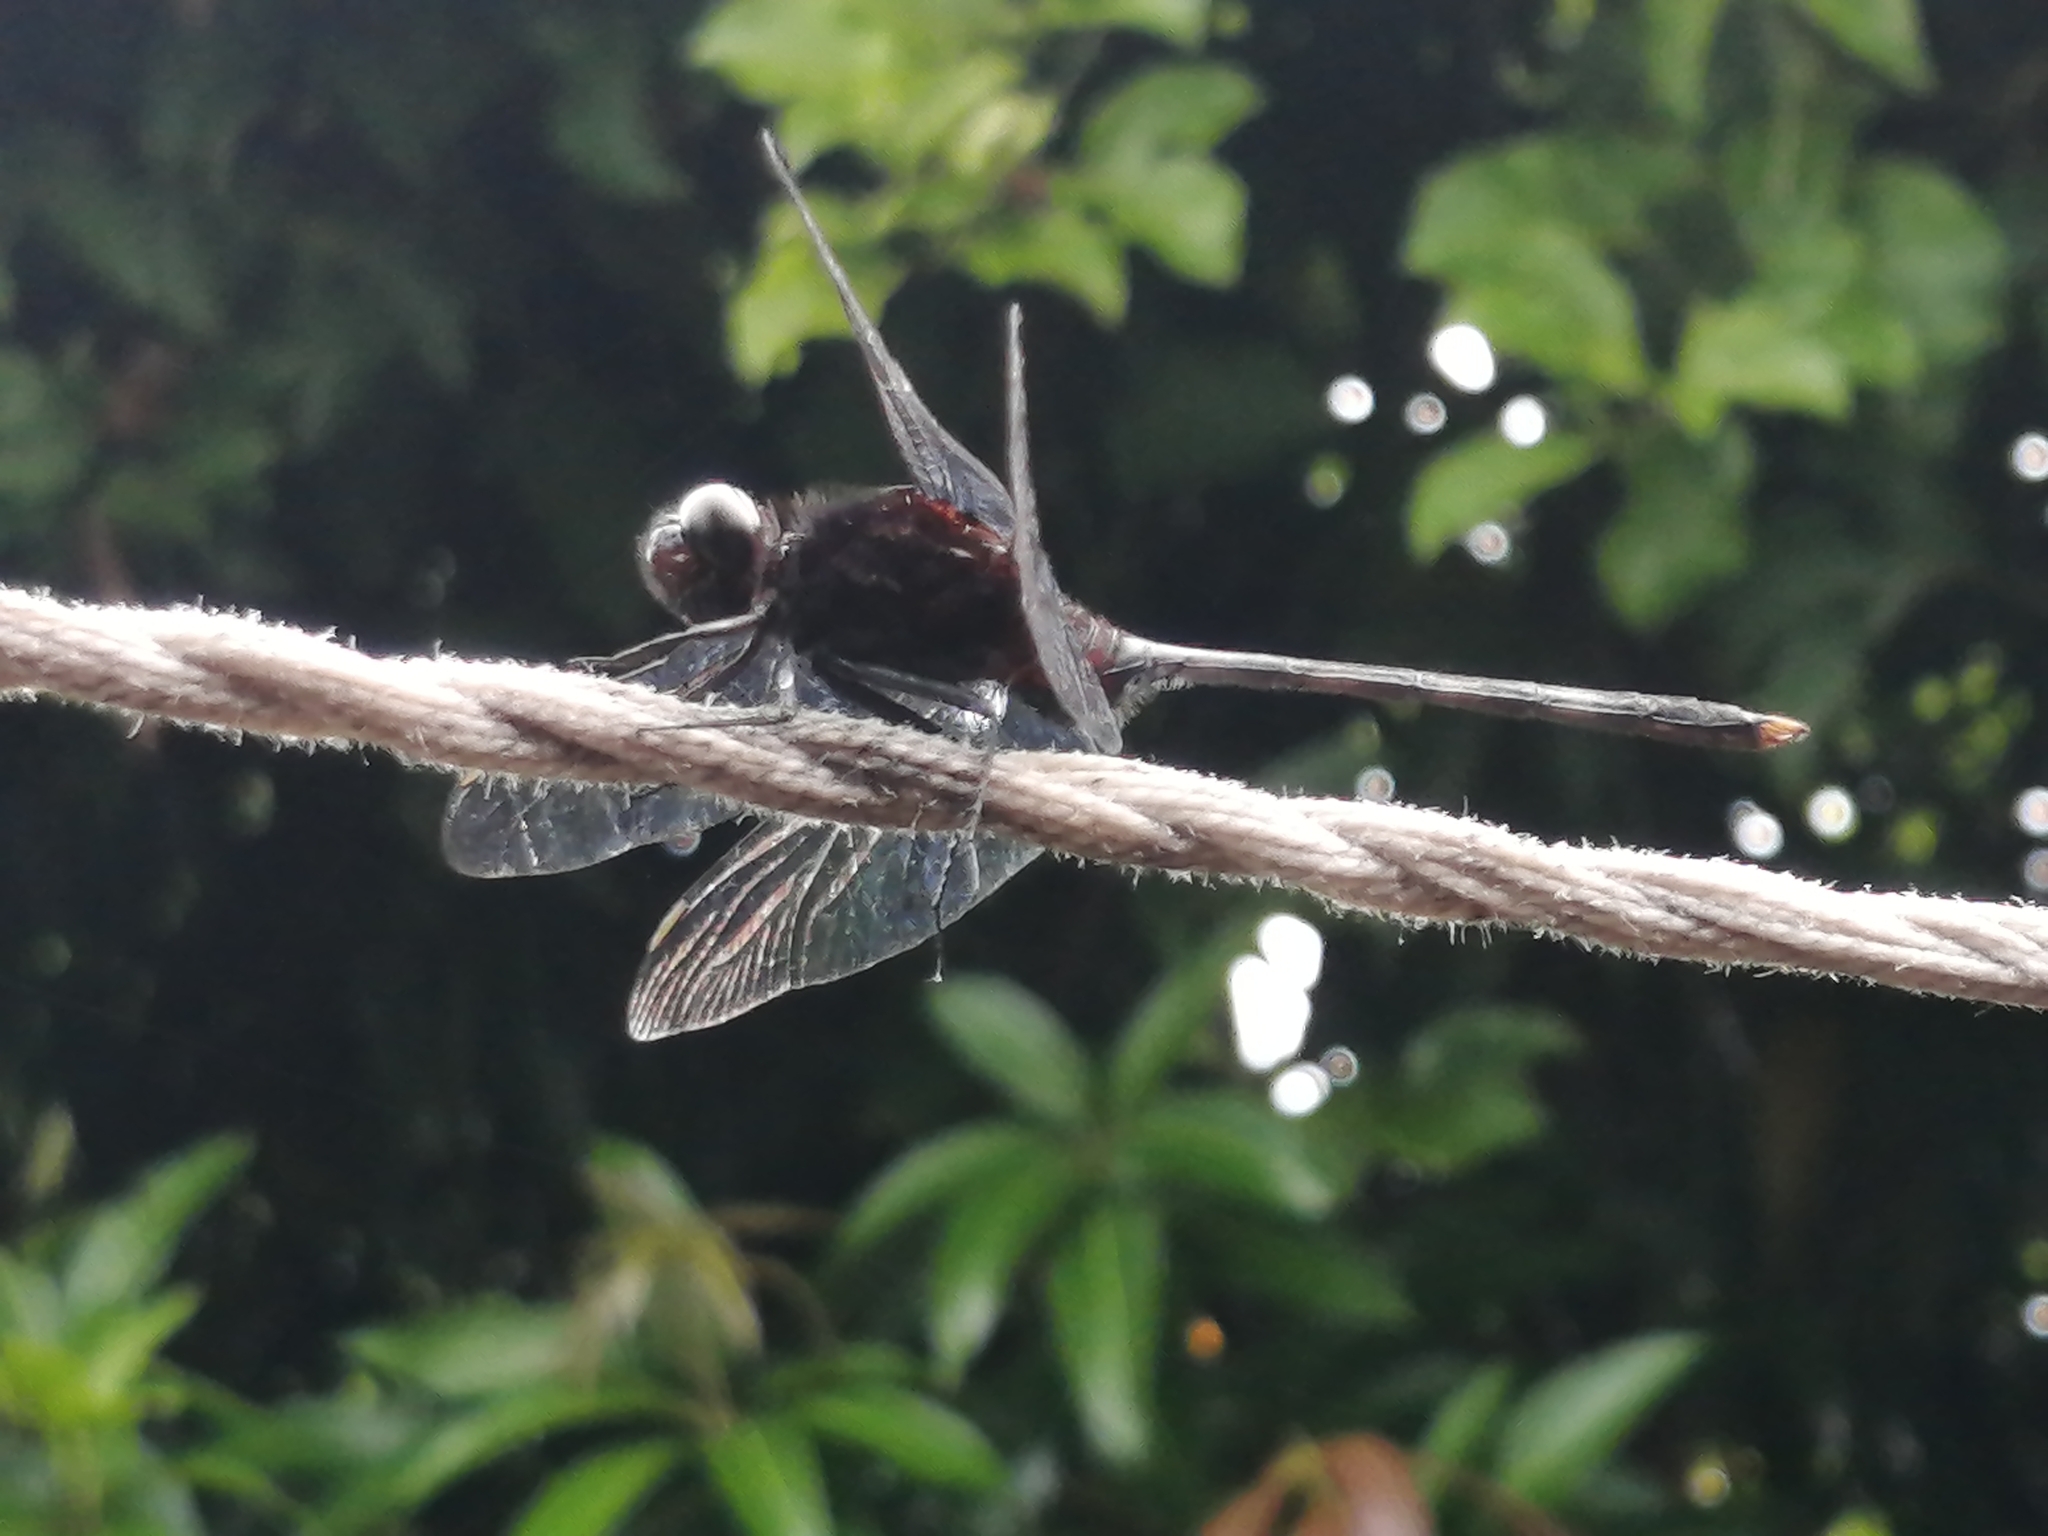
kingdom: Animalia
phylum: Arthropoda
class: Insecta
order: Odonata
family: Libellulidae
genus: Erythemis
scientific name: Erythemis plebeja
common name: Pin-tailed pondhawk
